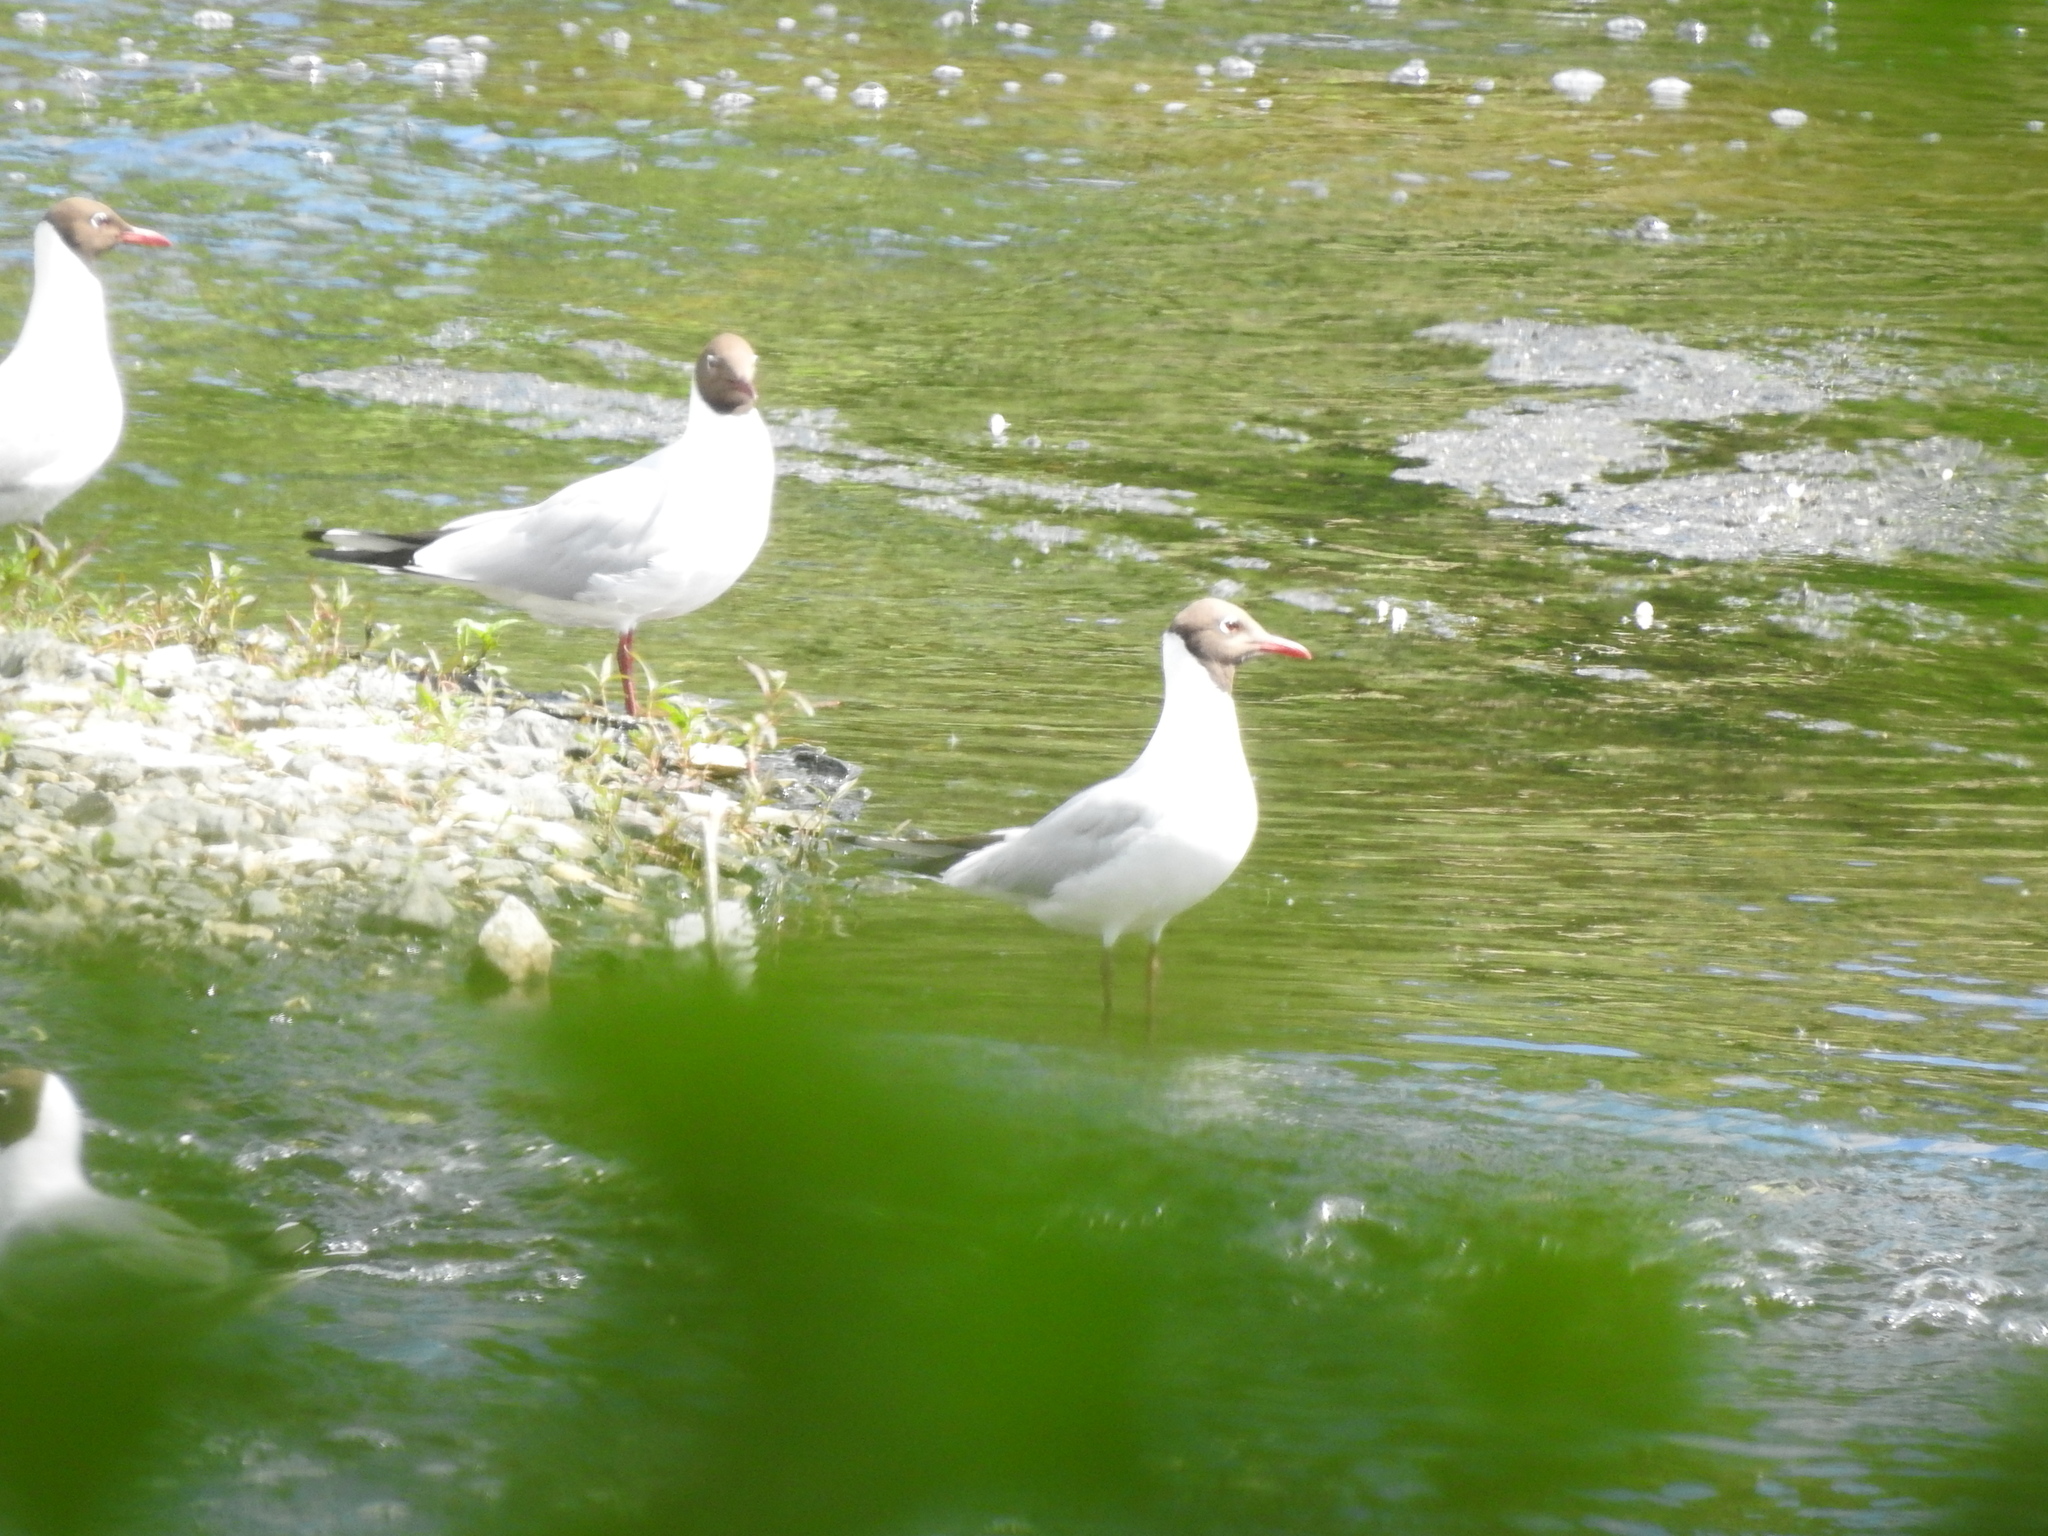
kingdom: Animalia
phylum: Chordata
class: Aves
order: Charadriiformes
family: Laridae
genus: Chroicocephalus
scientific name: Chroicocephalus ridibundus
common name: Black-headed gull
